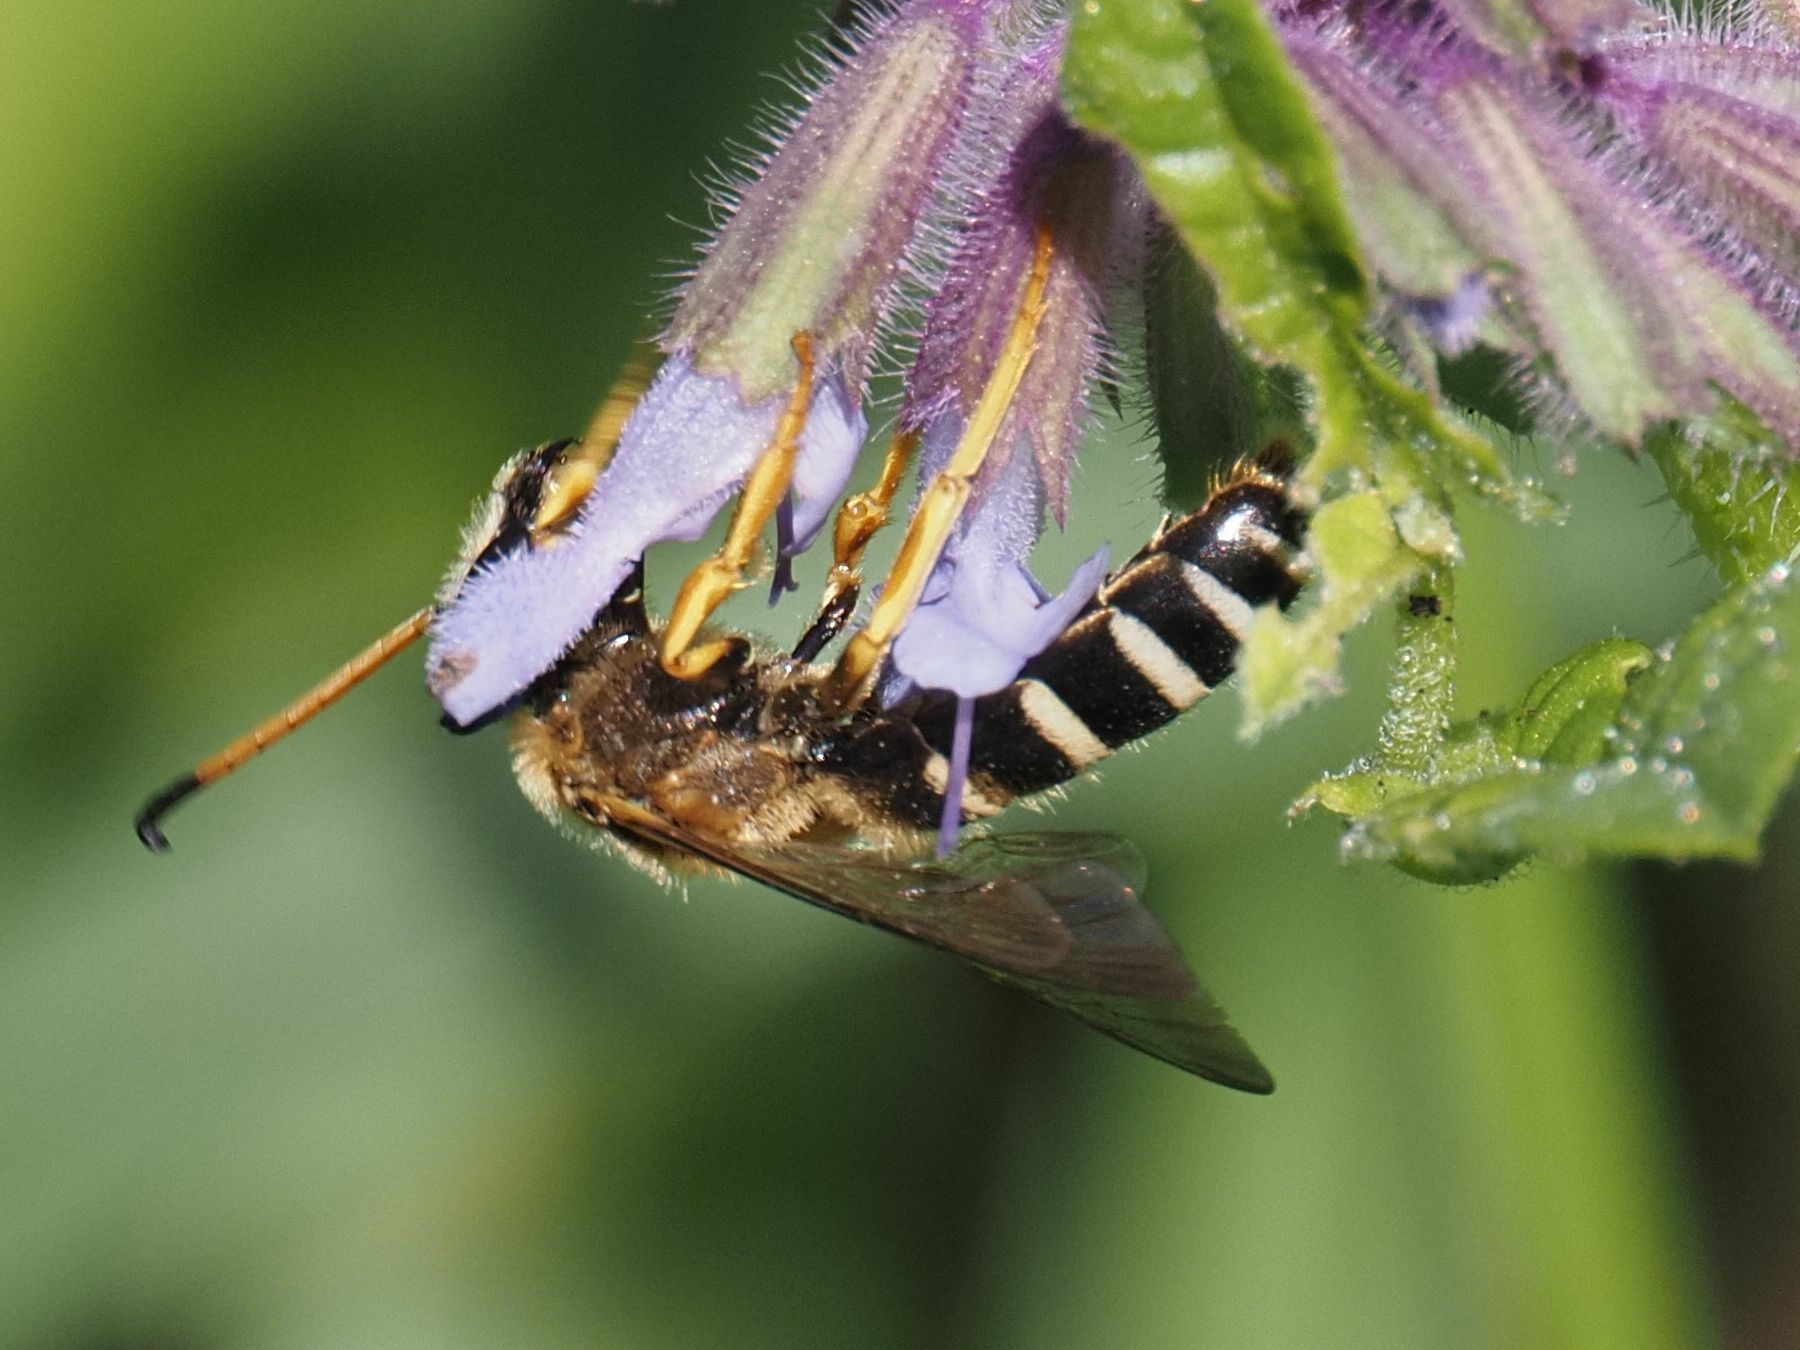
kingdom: Animalia
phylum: Arthropoda
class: Insecta
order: Hymenoptera
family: Halictidae
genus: Halictus
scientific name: Halictus sexcinctus
